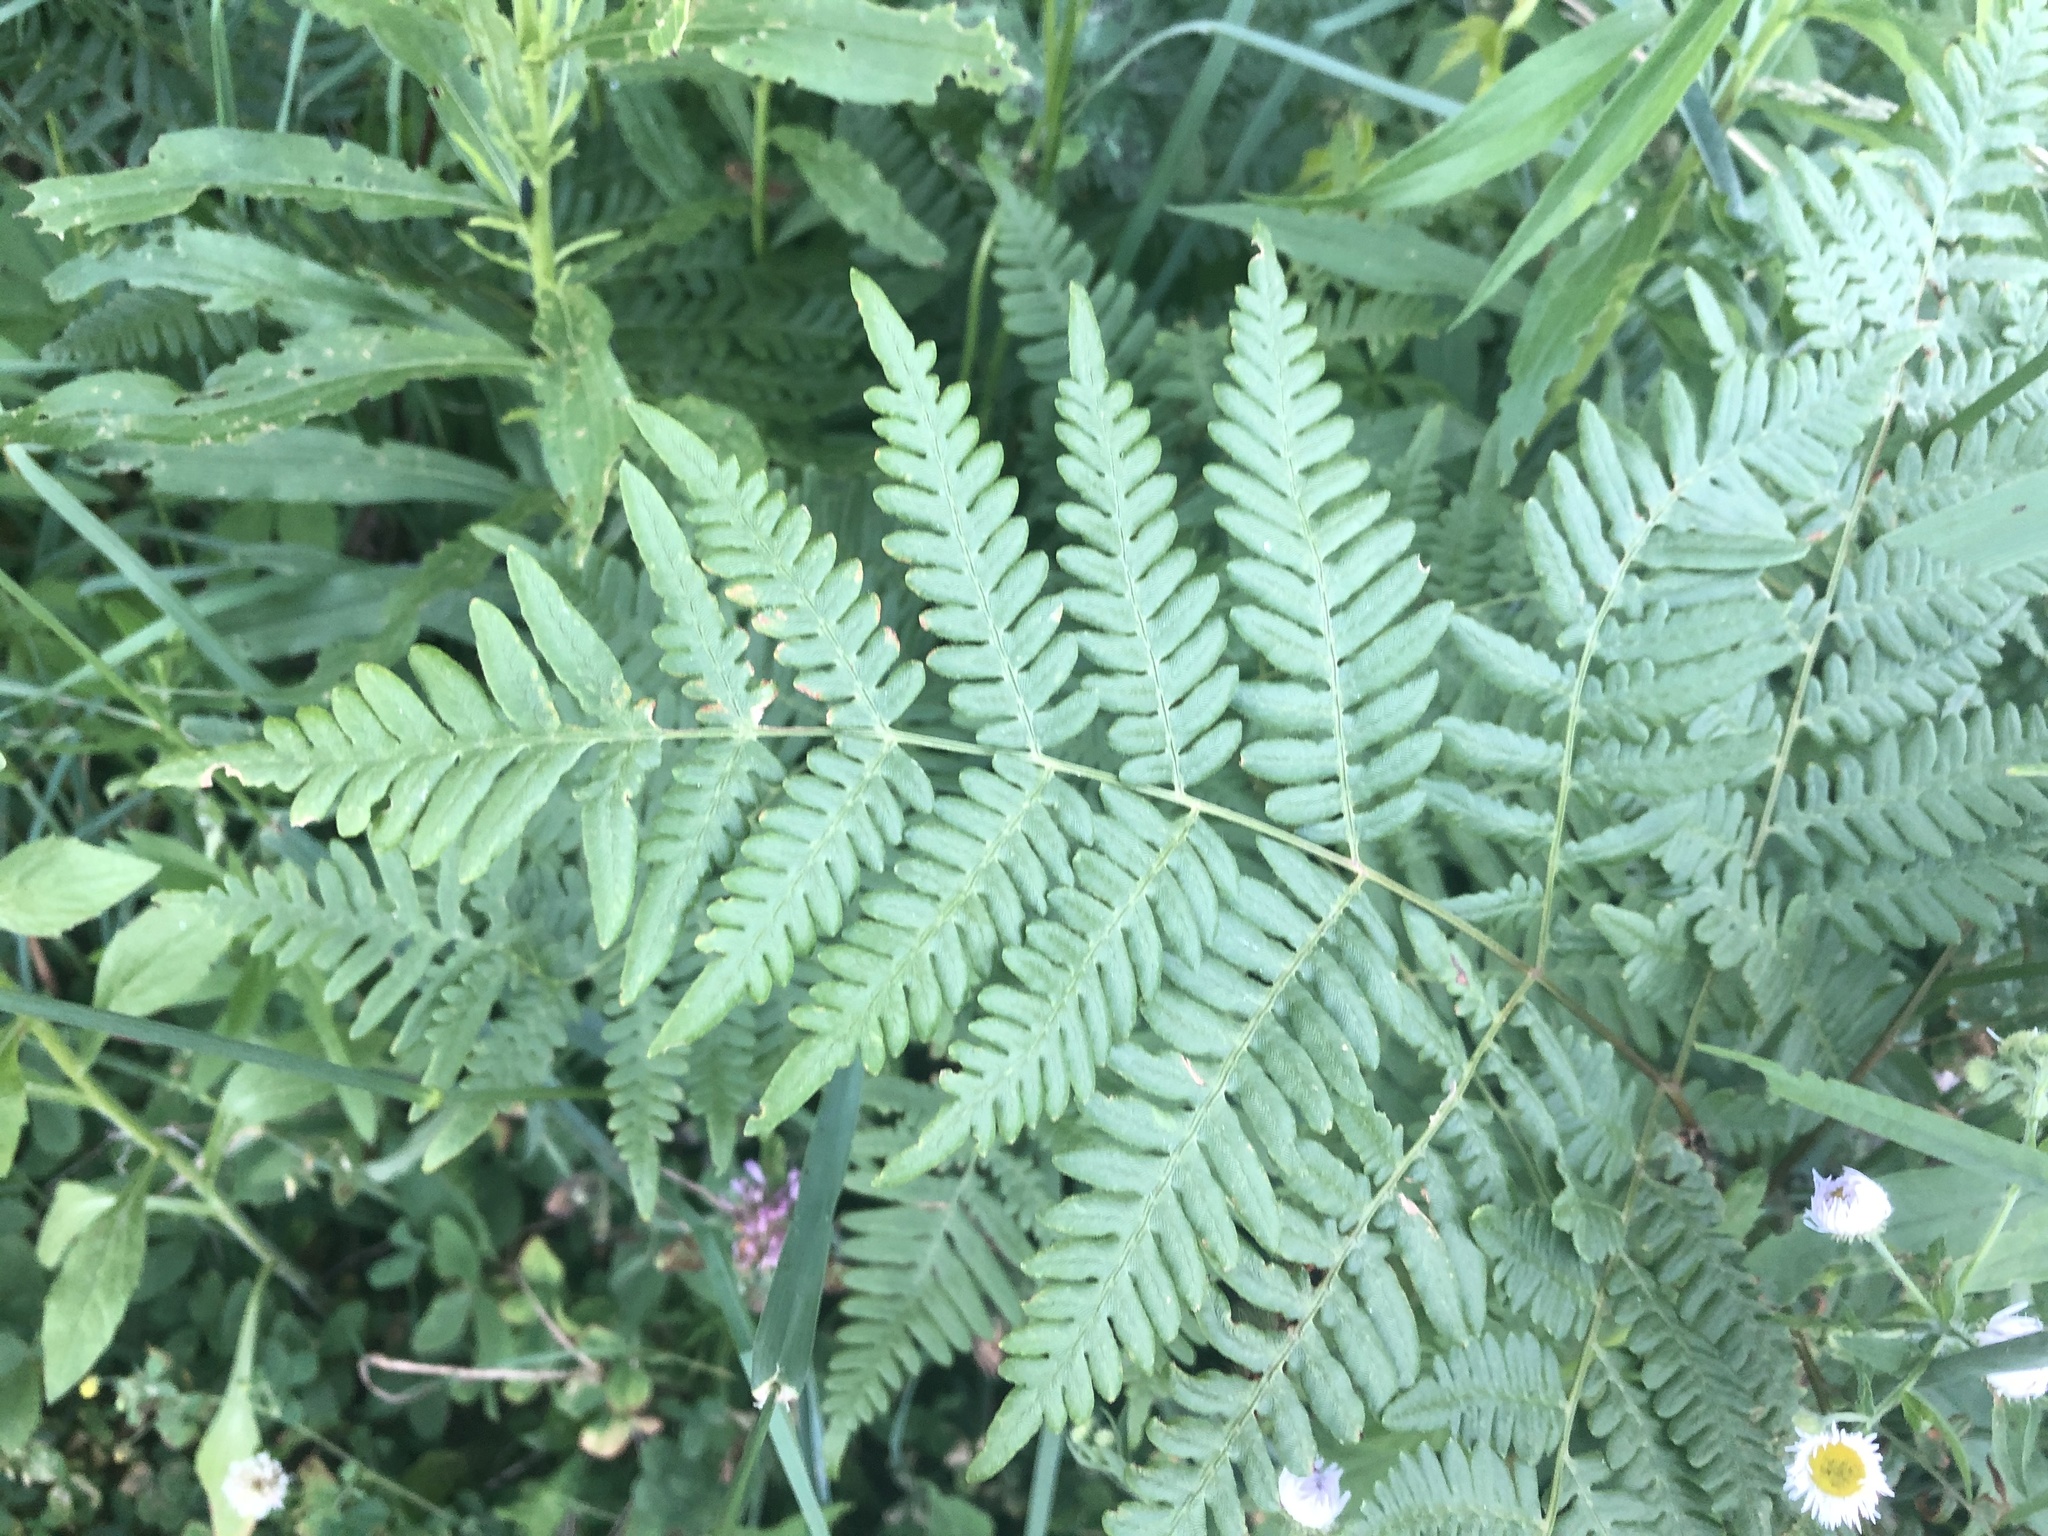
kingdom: Plantae
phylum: Tracheophyta
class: Polypodiopsida
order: Polypodiales
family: Dennstaedtiaceae
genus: Pteridium
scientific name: Pteridium aquilinum
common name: Bracken
